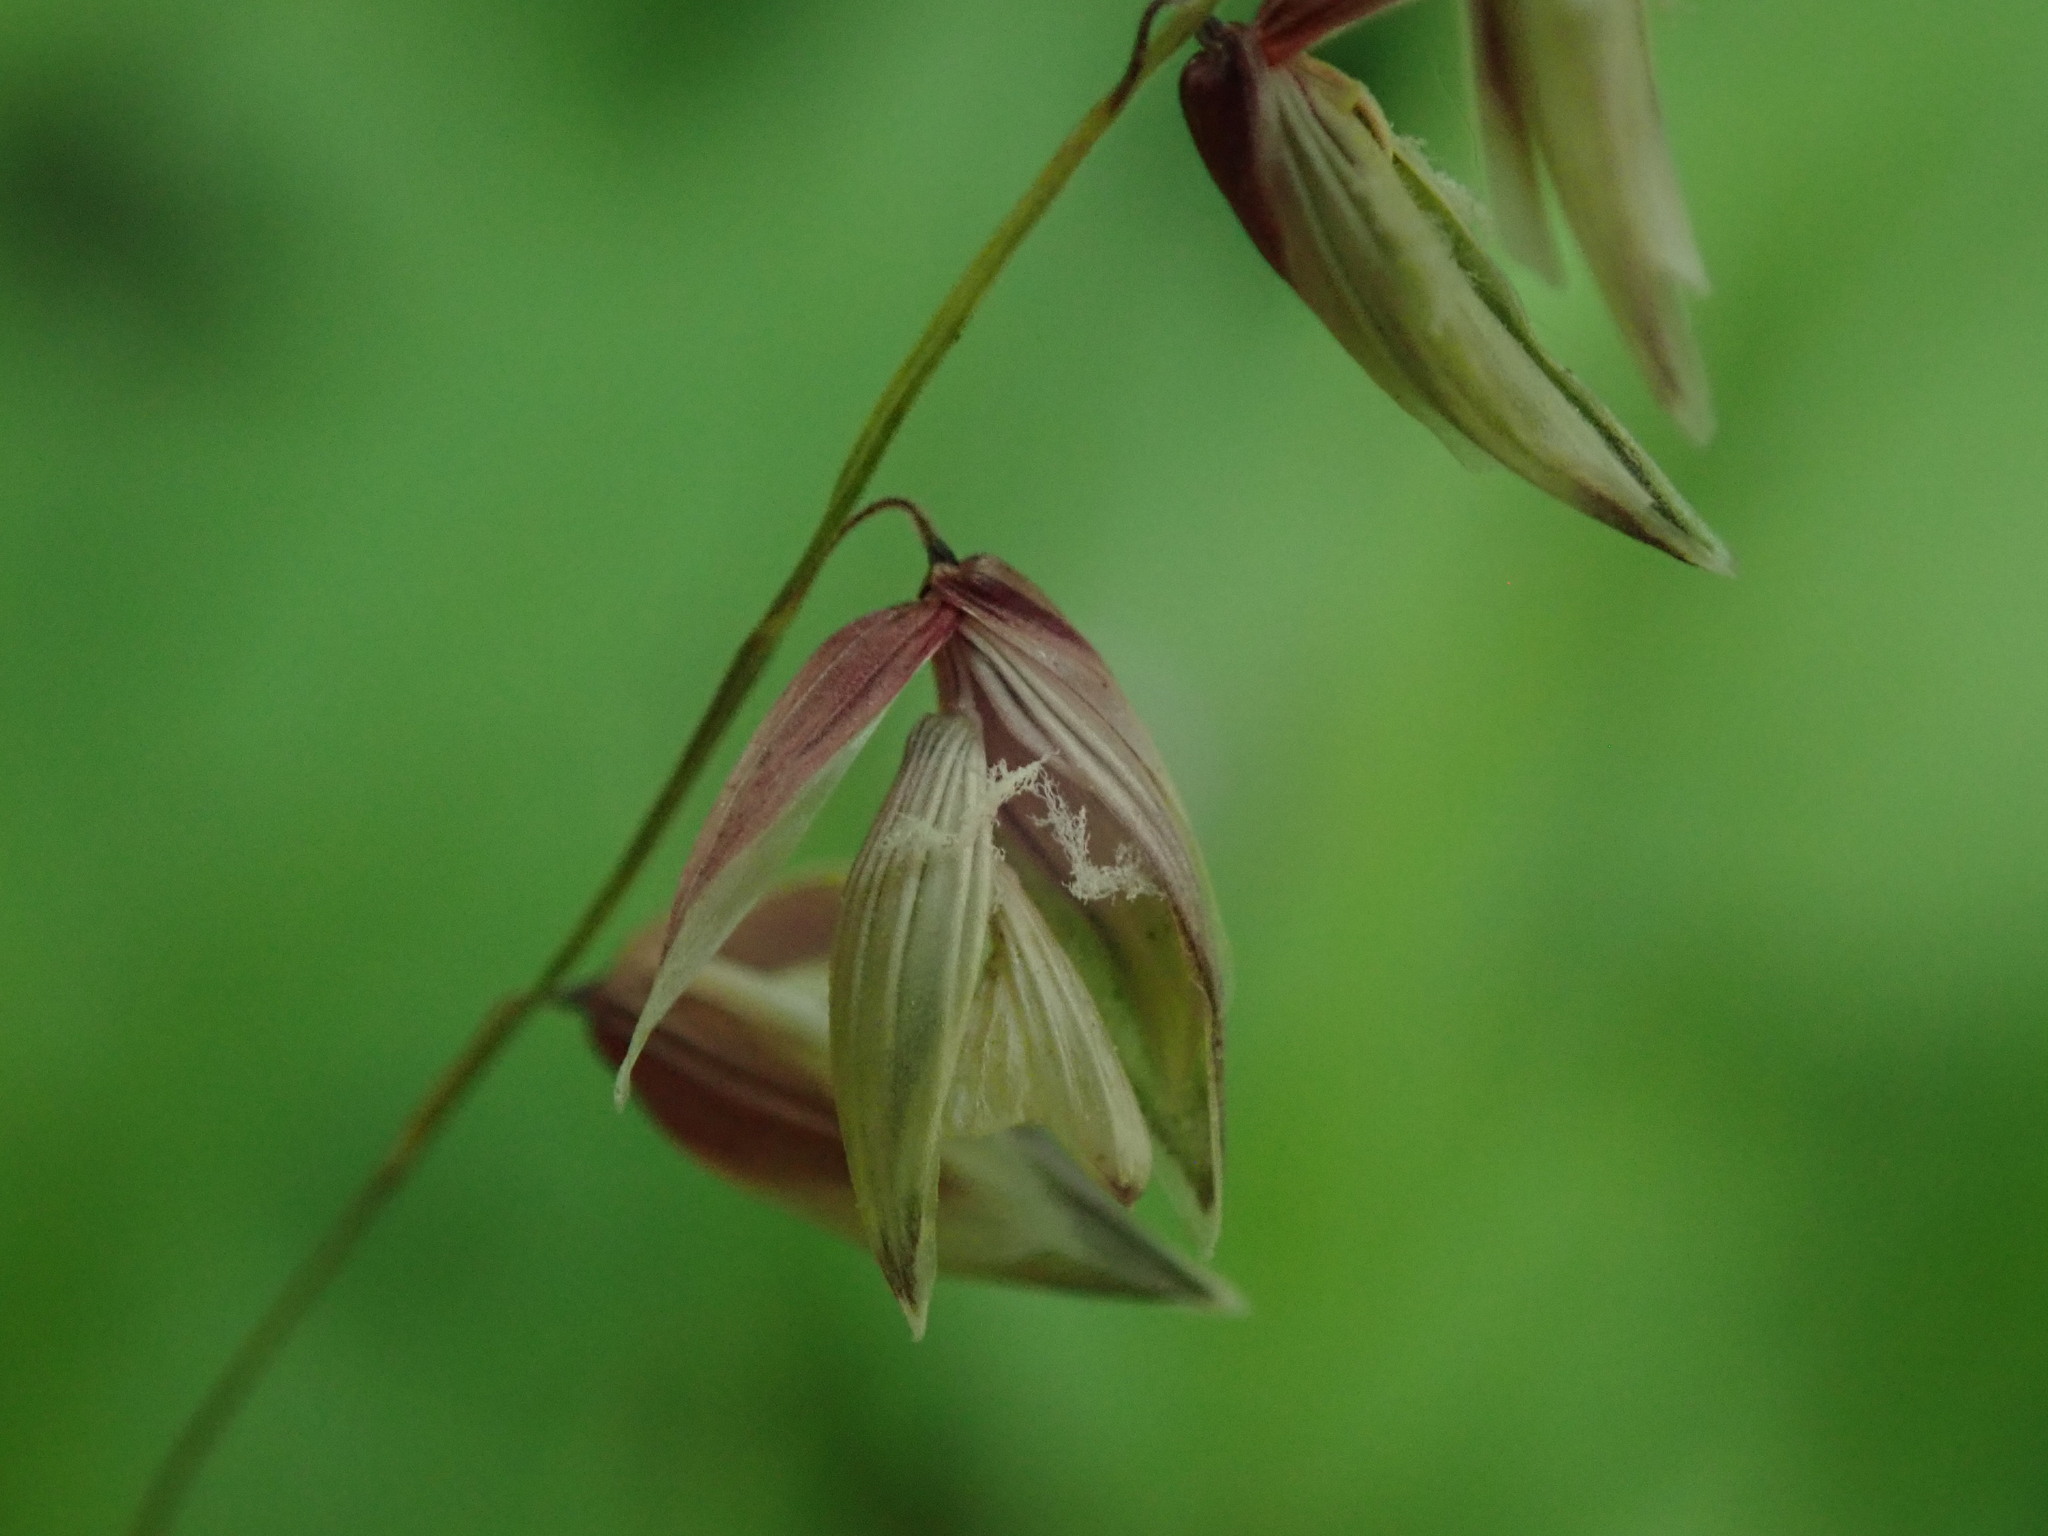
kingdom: Plantae
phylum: Tracheophyta
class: Liliopsida
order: Poales
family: Poaceae
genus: Melica
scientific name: Melica nutans
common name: Mountain melick
